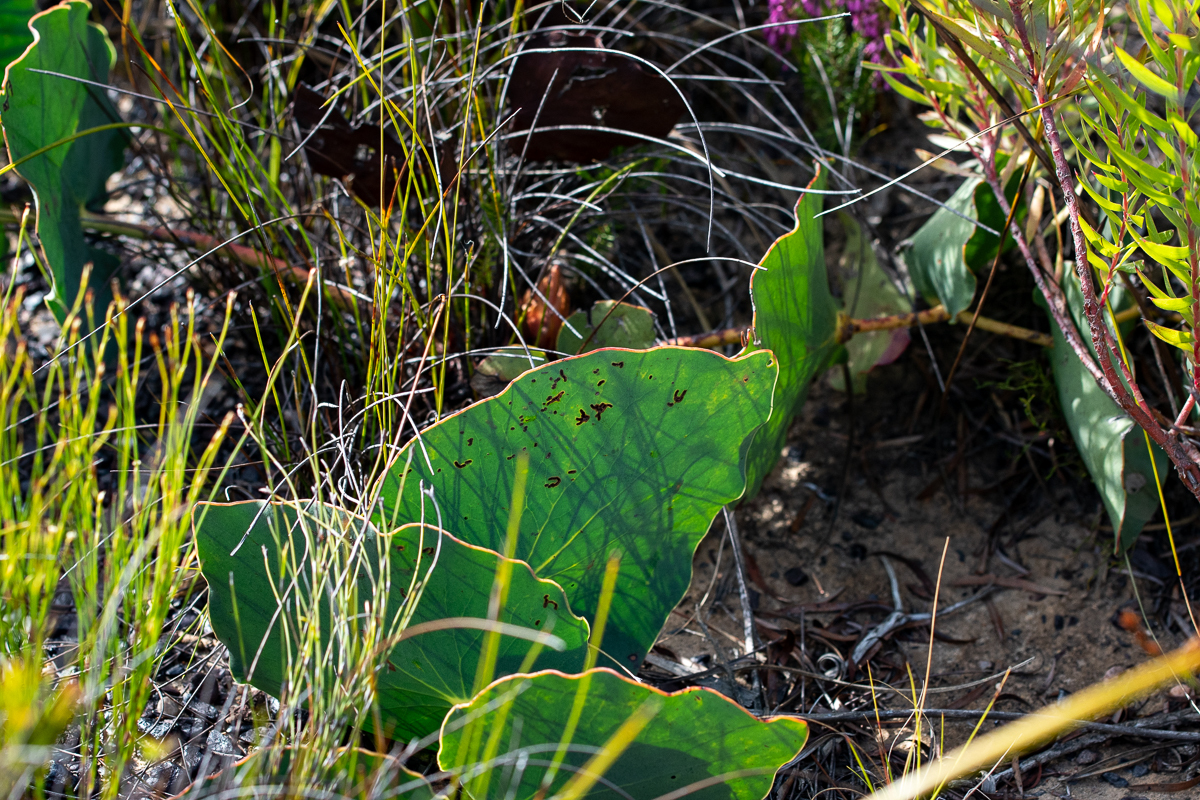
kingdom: Plantae
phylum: Tracheophyta
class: Magnoliopsida
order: Proteales
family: Proteaceae
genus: Protea
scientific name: Protea cordata
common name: Heart-leaf sugarbush
